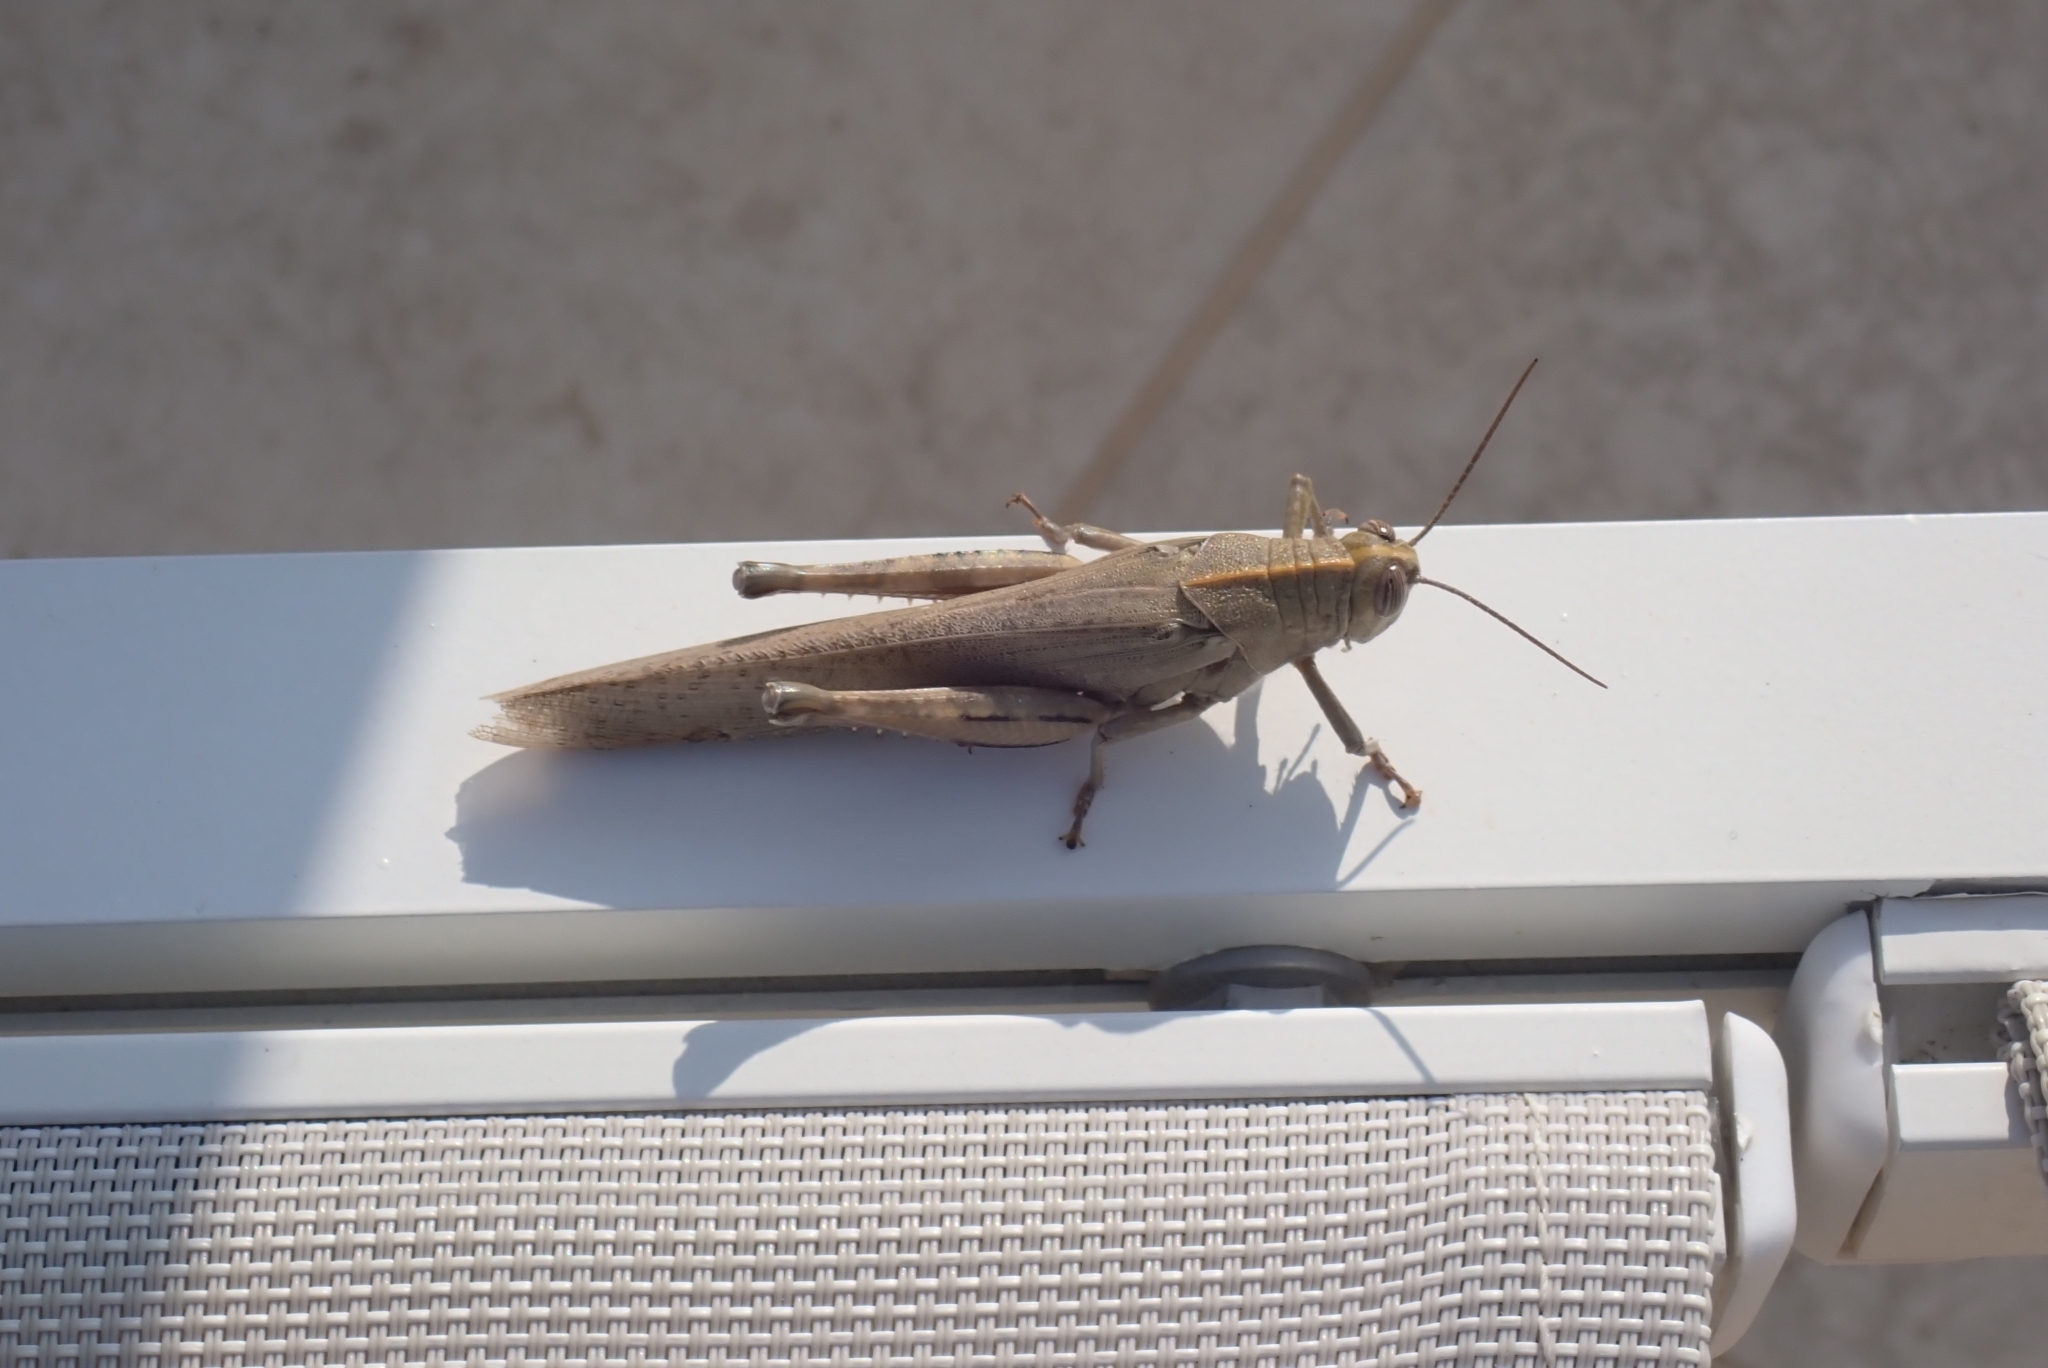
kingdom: Animalia
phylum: Arthropoda
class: Insecta
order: Orthoptera
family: Acrididae
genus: Anacridium
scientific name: Anacridium aegyptium
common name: Egyptian grasshopper
